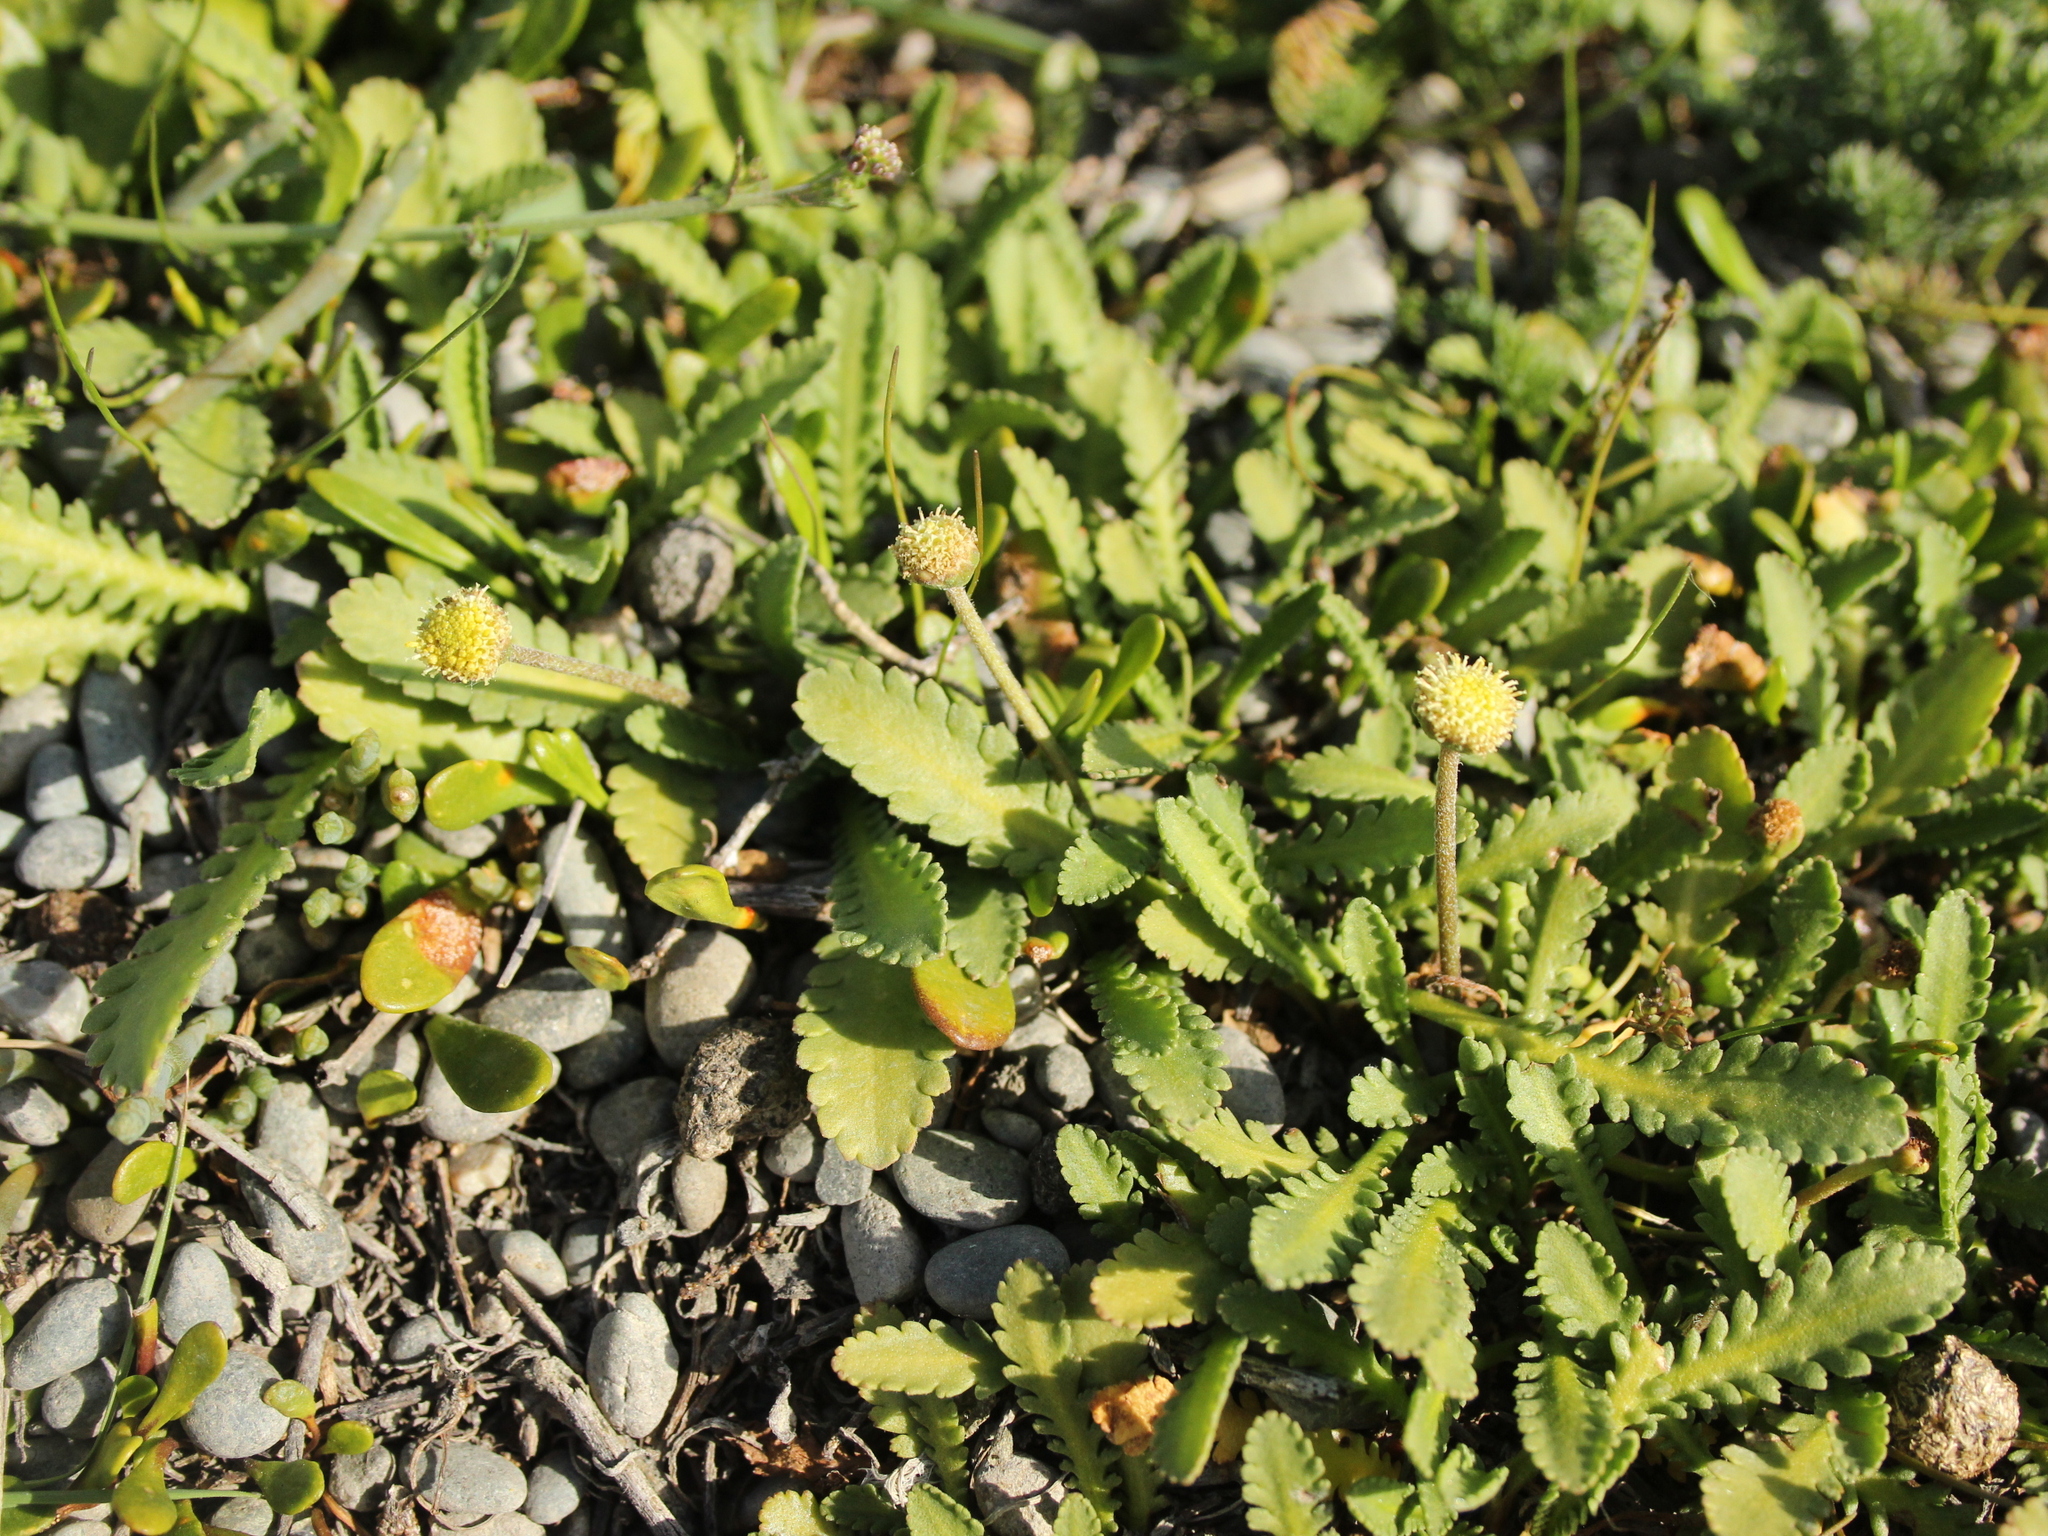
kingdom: Plantae
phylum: Tracheophyta
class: Magnoliopsida
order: Asterales
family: Asteraceae
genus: Leptinella
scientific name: Leptinella dioica
